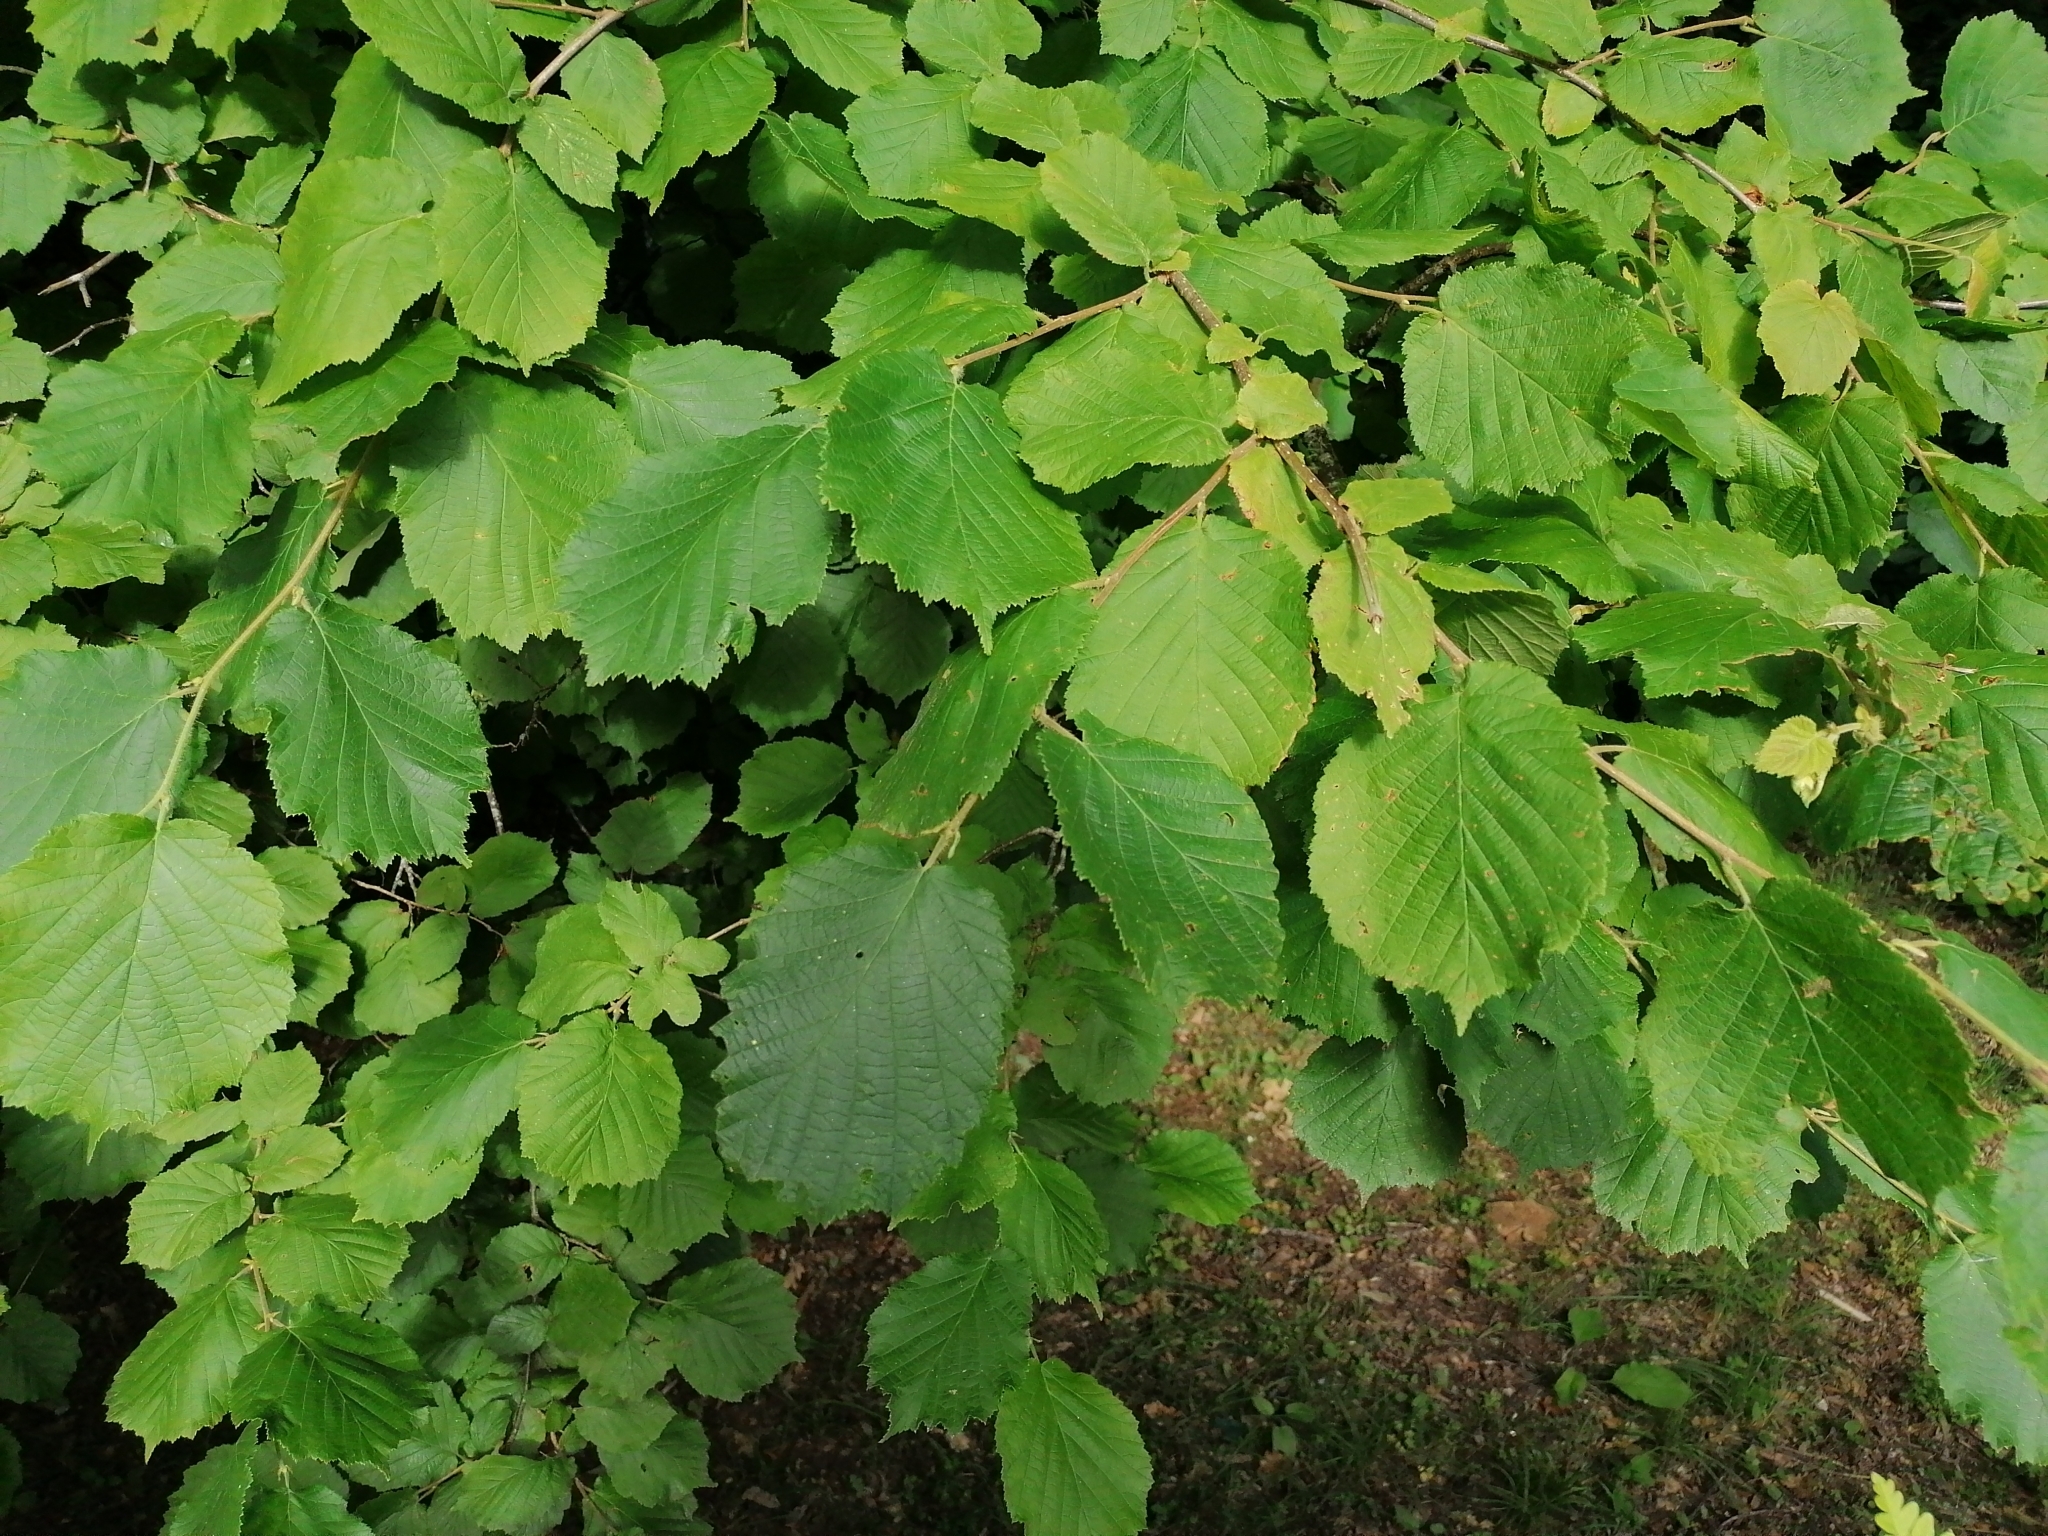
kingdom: Plantae
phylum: Tracheophyta
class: Magnoliopsida
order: Fagales
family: Betulaceae
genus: Corylus
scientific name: Corylus avellana
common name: European hazel
